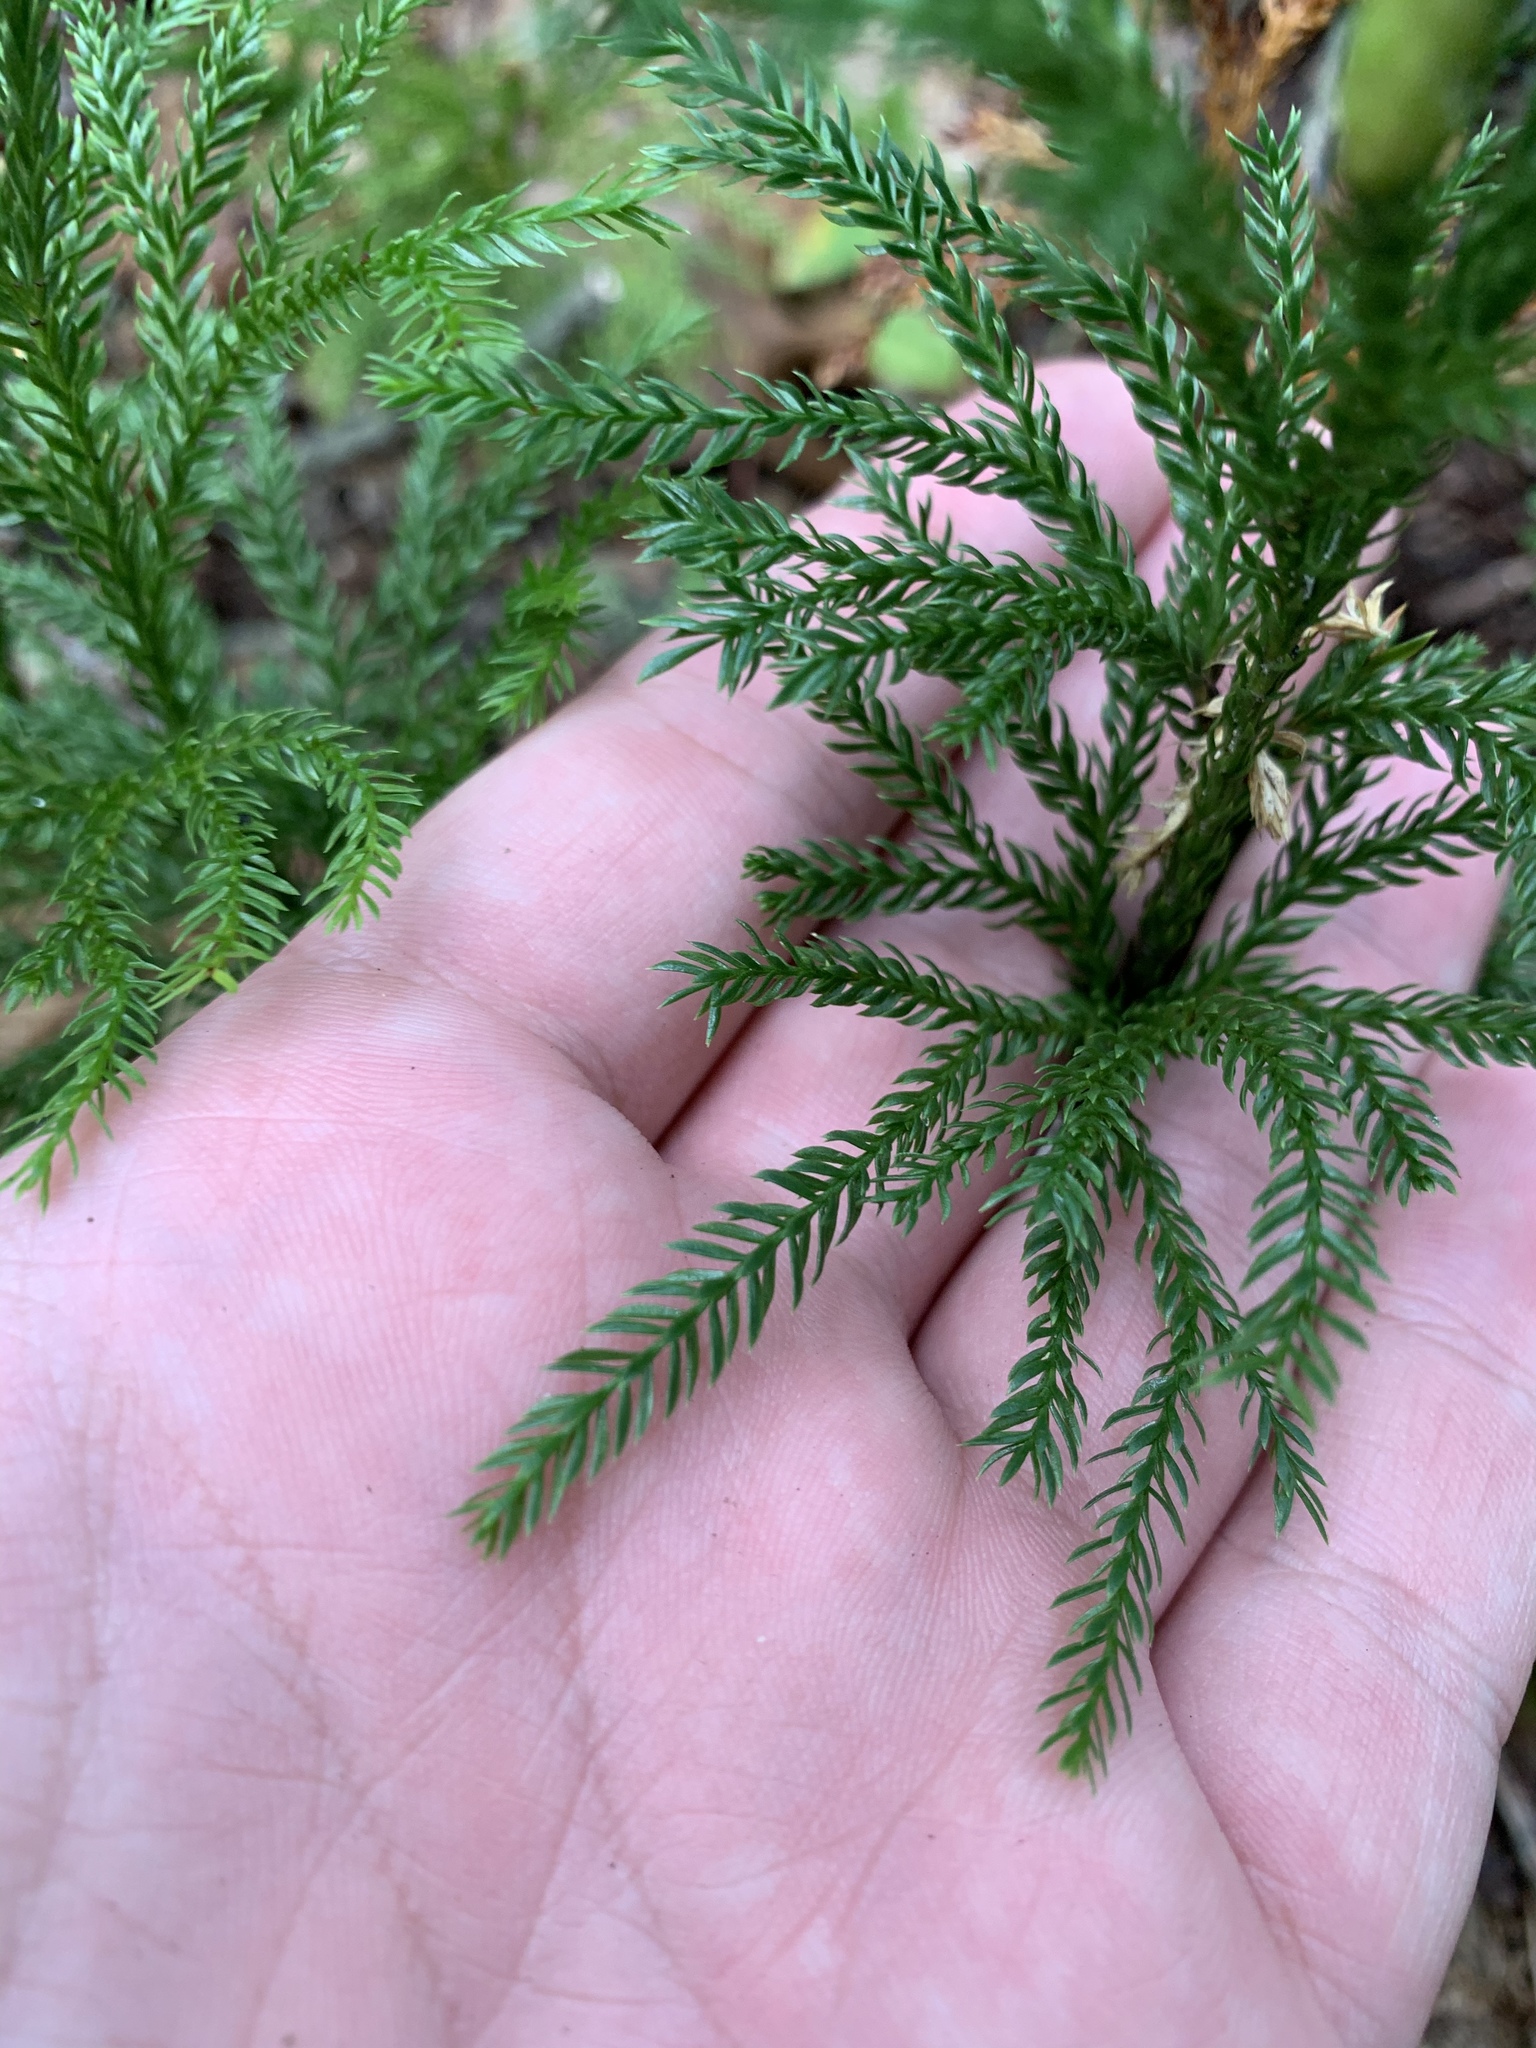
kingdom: Plantae
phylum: Tracheophyta
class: Lycopodiopsida
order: Lycopodiales
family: Lycopodiaceae
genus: Dendrolycopodium
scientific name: Dendrolycopodium obscurum
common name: Common ground-pine
